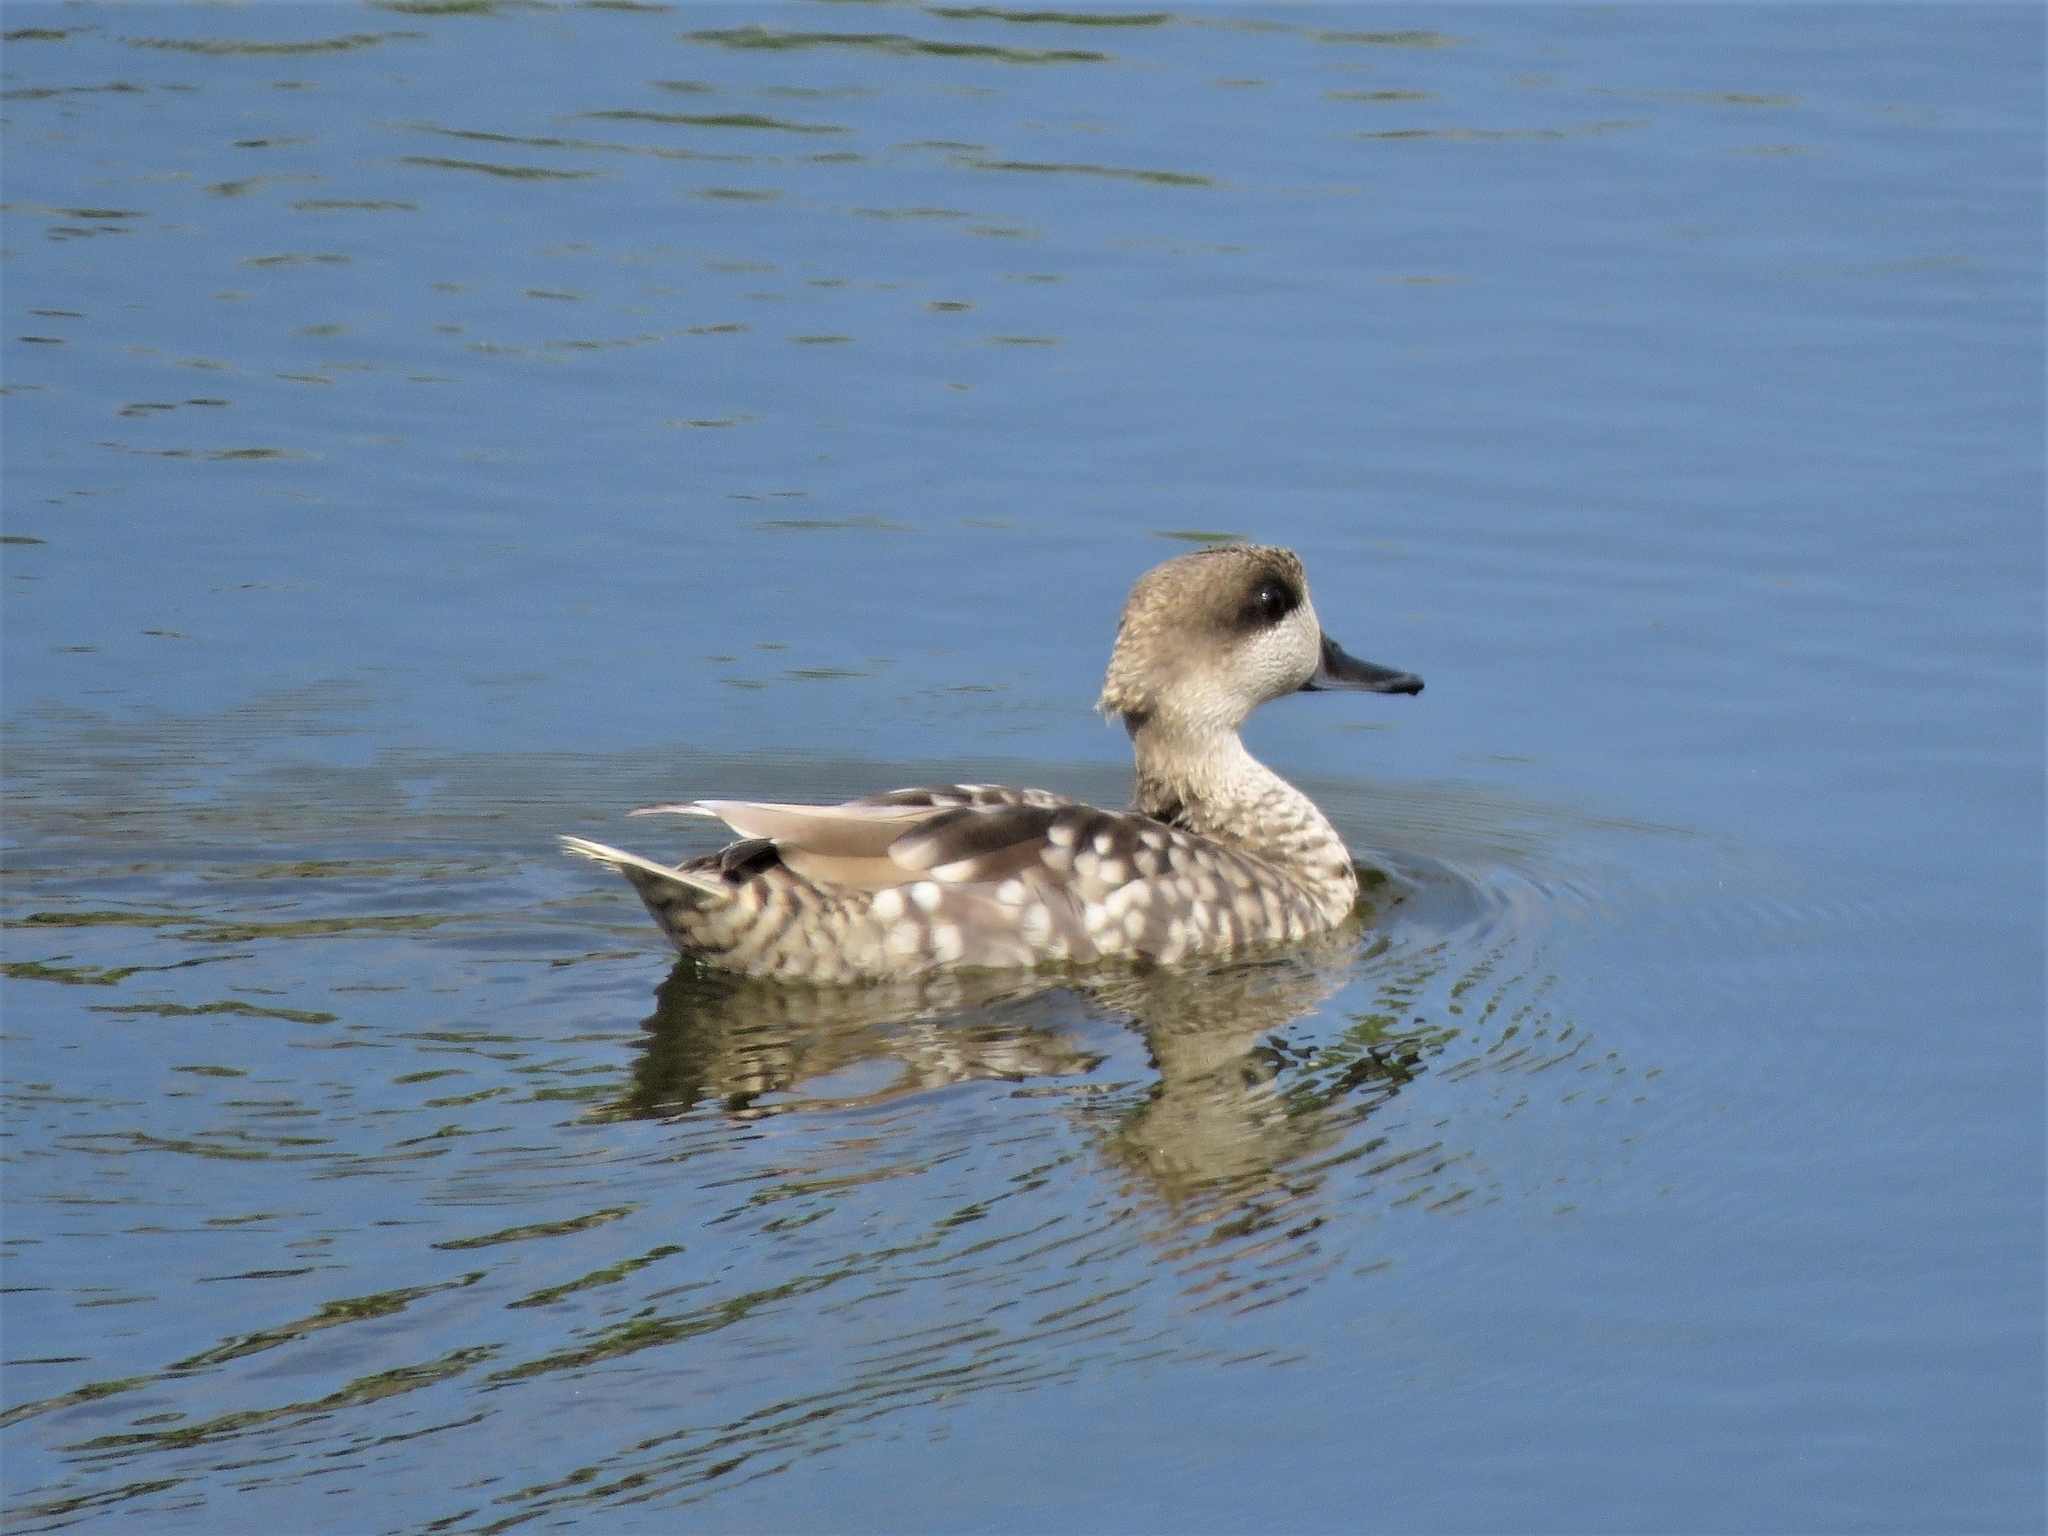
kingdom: Animalia
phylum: Chordata
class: Aves
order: Anseriformes
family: Anatidae
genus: Marmaronetta
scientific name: Marmaronetta angustirostris
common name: Marbled duck
